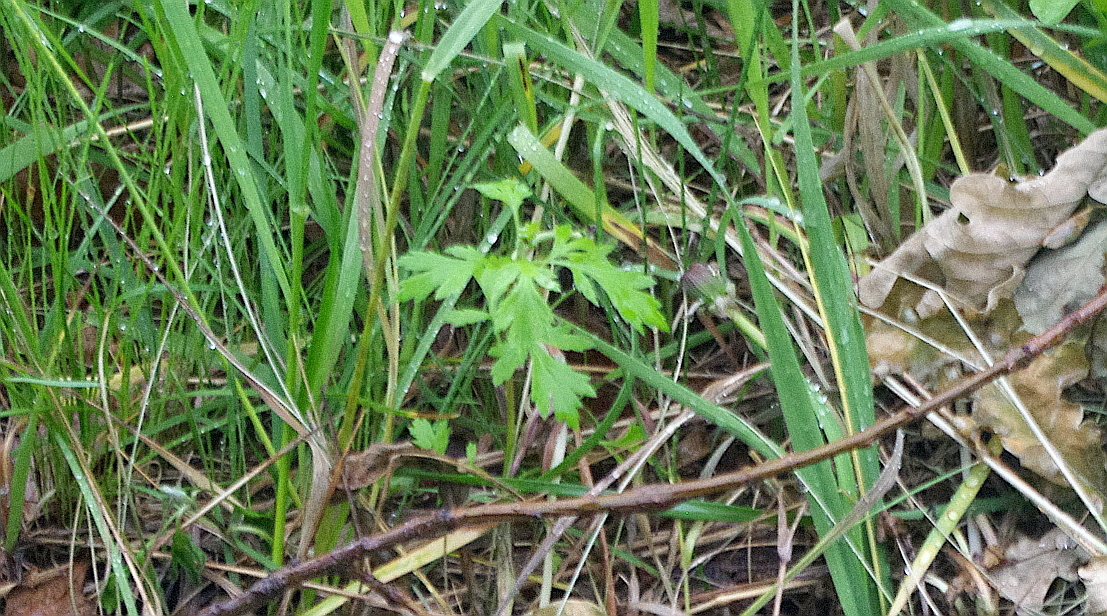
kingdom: Plantae
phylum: Tracheophyta
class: Magnoliopsida
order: Asterales
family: Asteraceae
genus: Artemisia
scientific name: Artemisia vulgaris
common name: Mugwort
